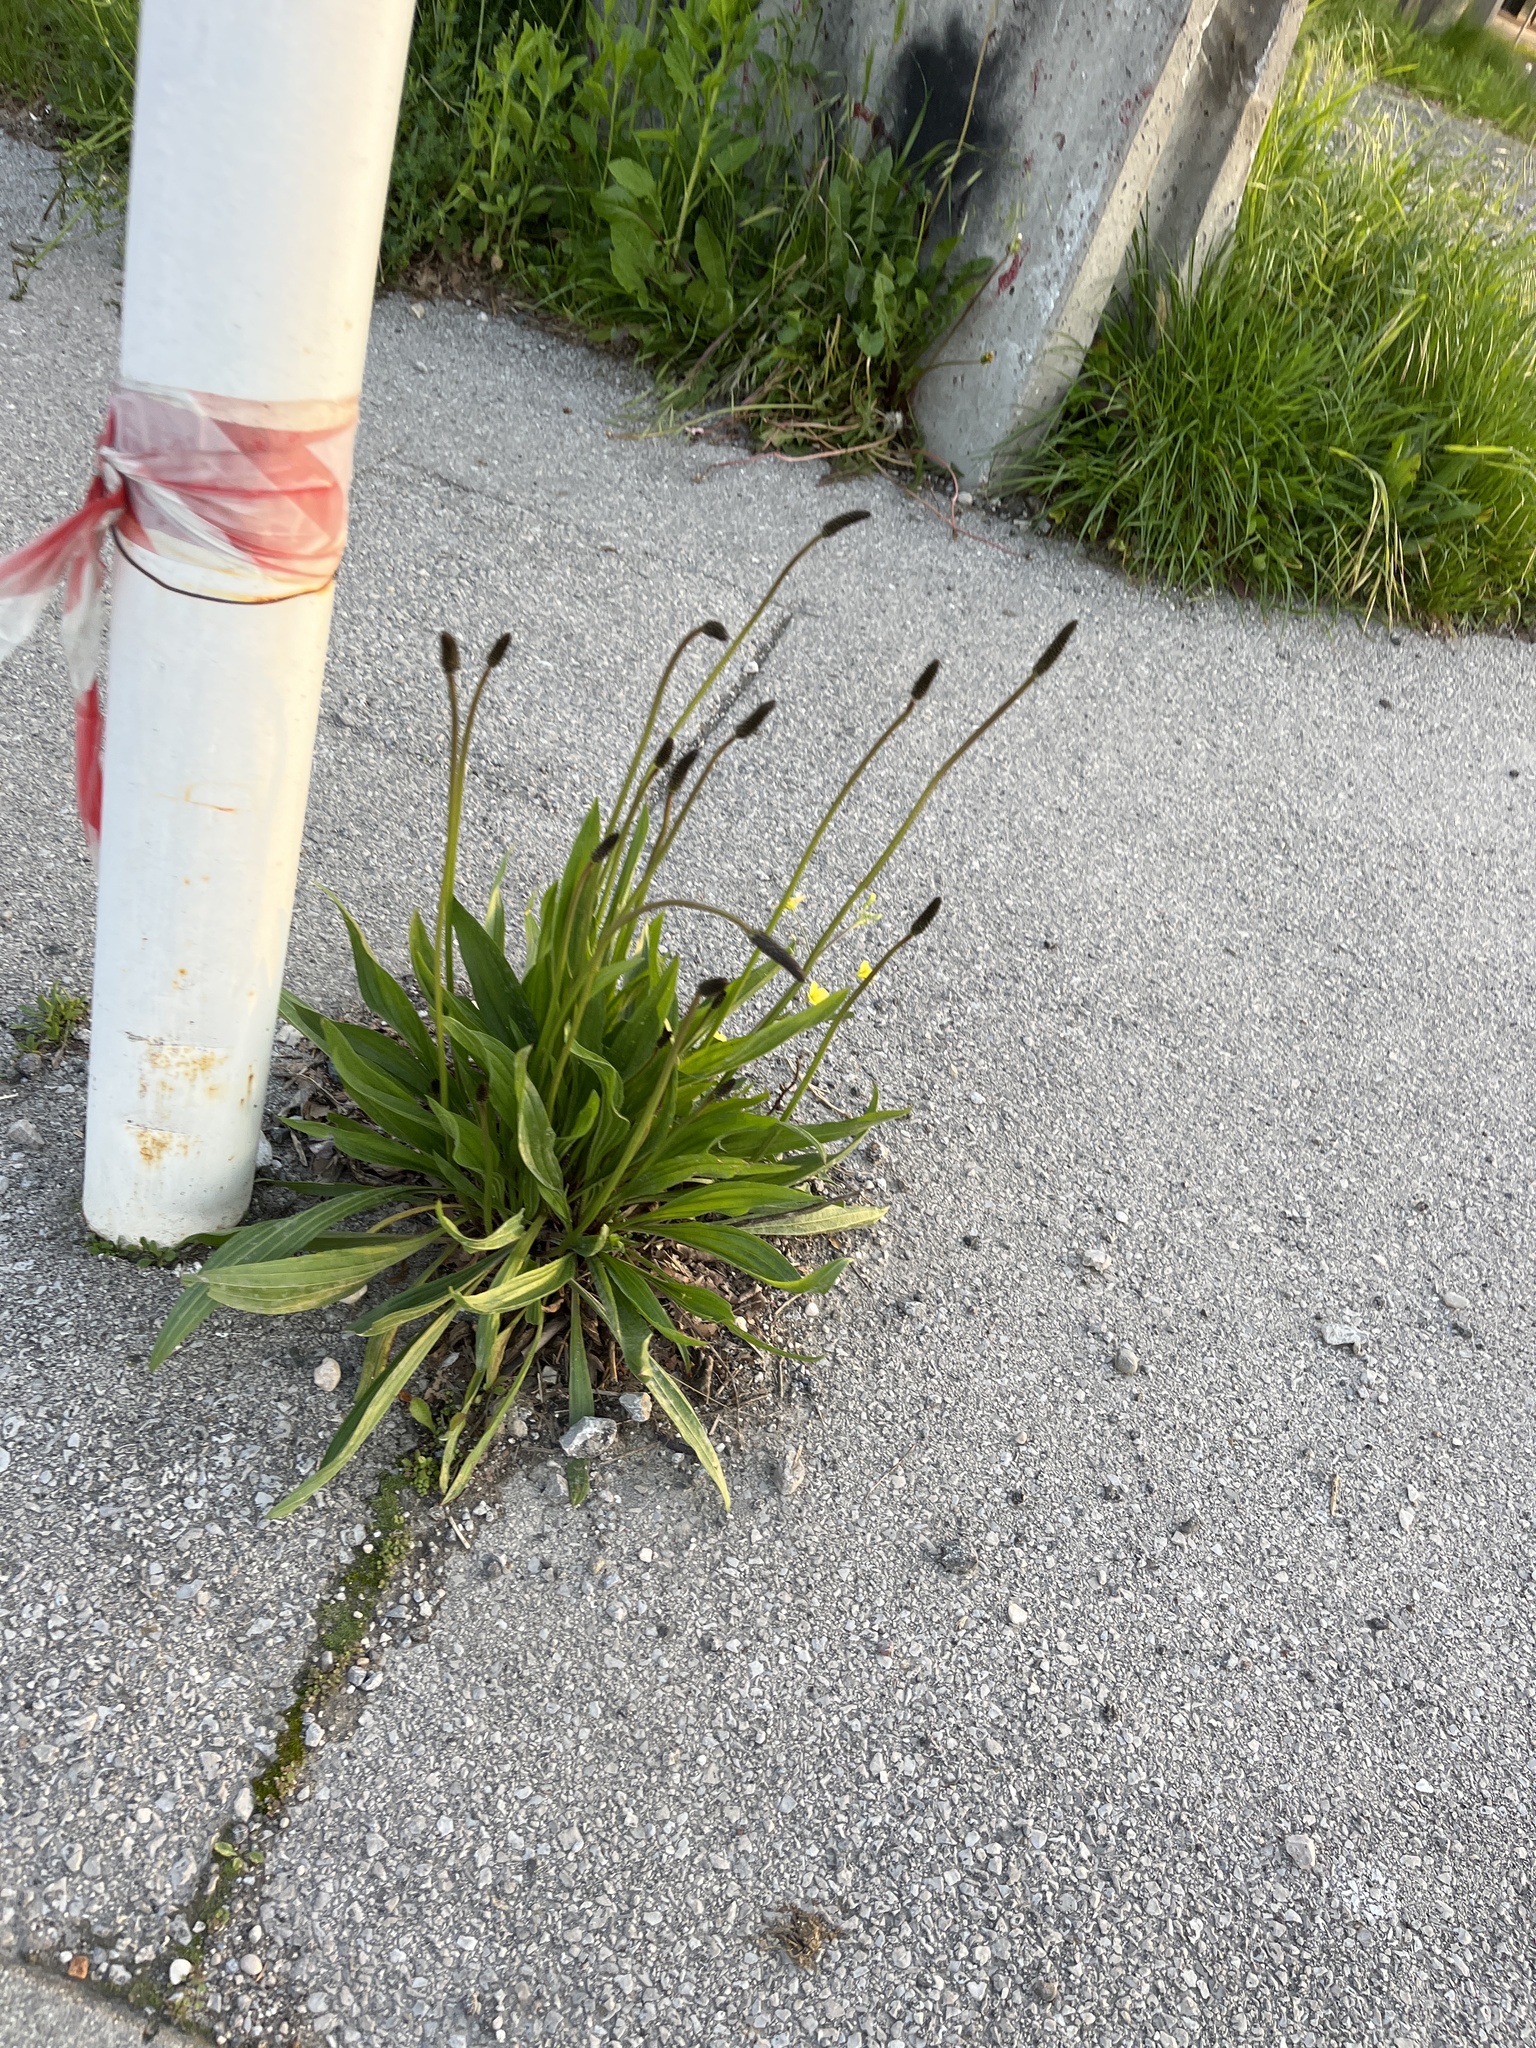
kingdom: Plantae
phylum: Tracheophyta
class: Magnoliopsida
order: Lamiales
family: Plantaginaceae
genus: Plantago
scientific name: Plantago lanceolata
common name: Ribwort plantain
